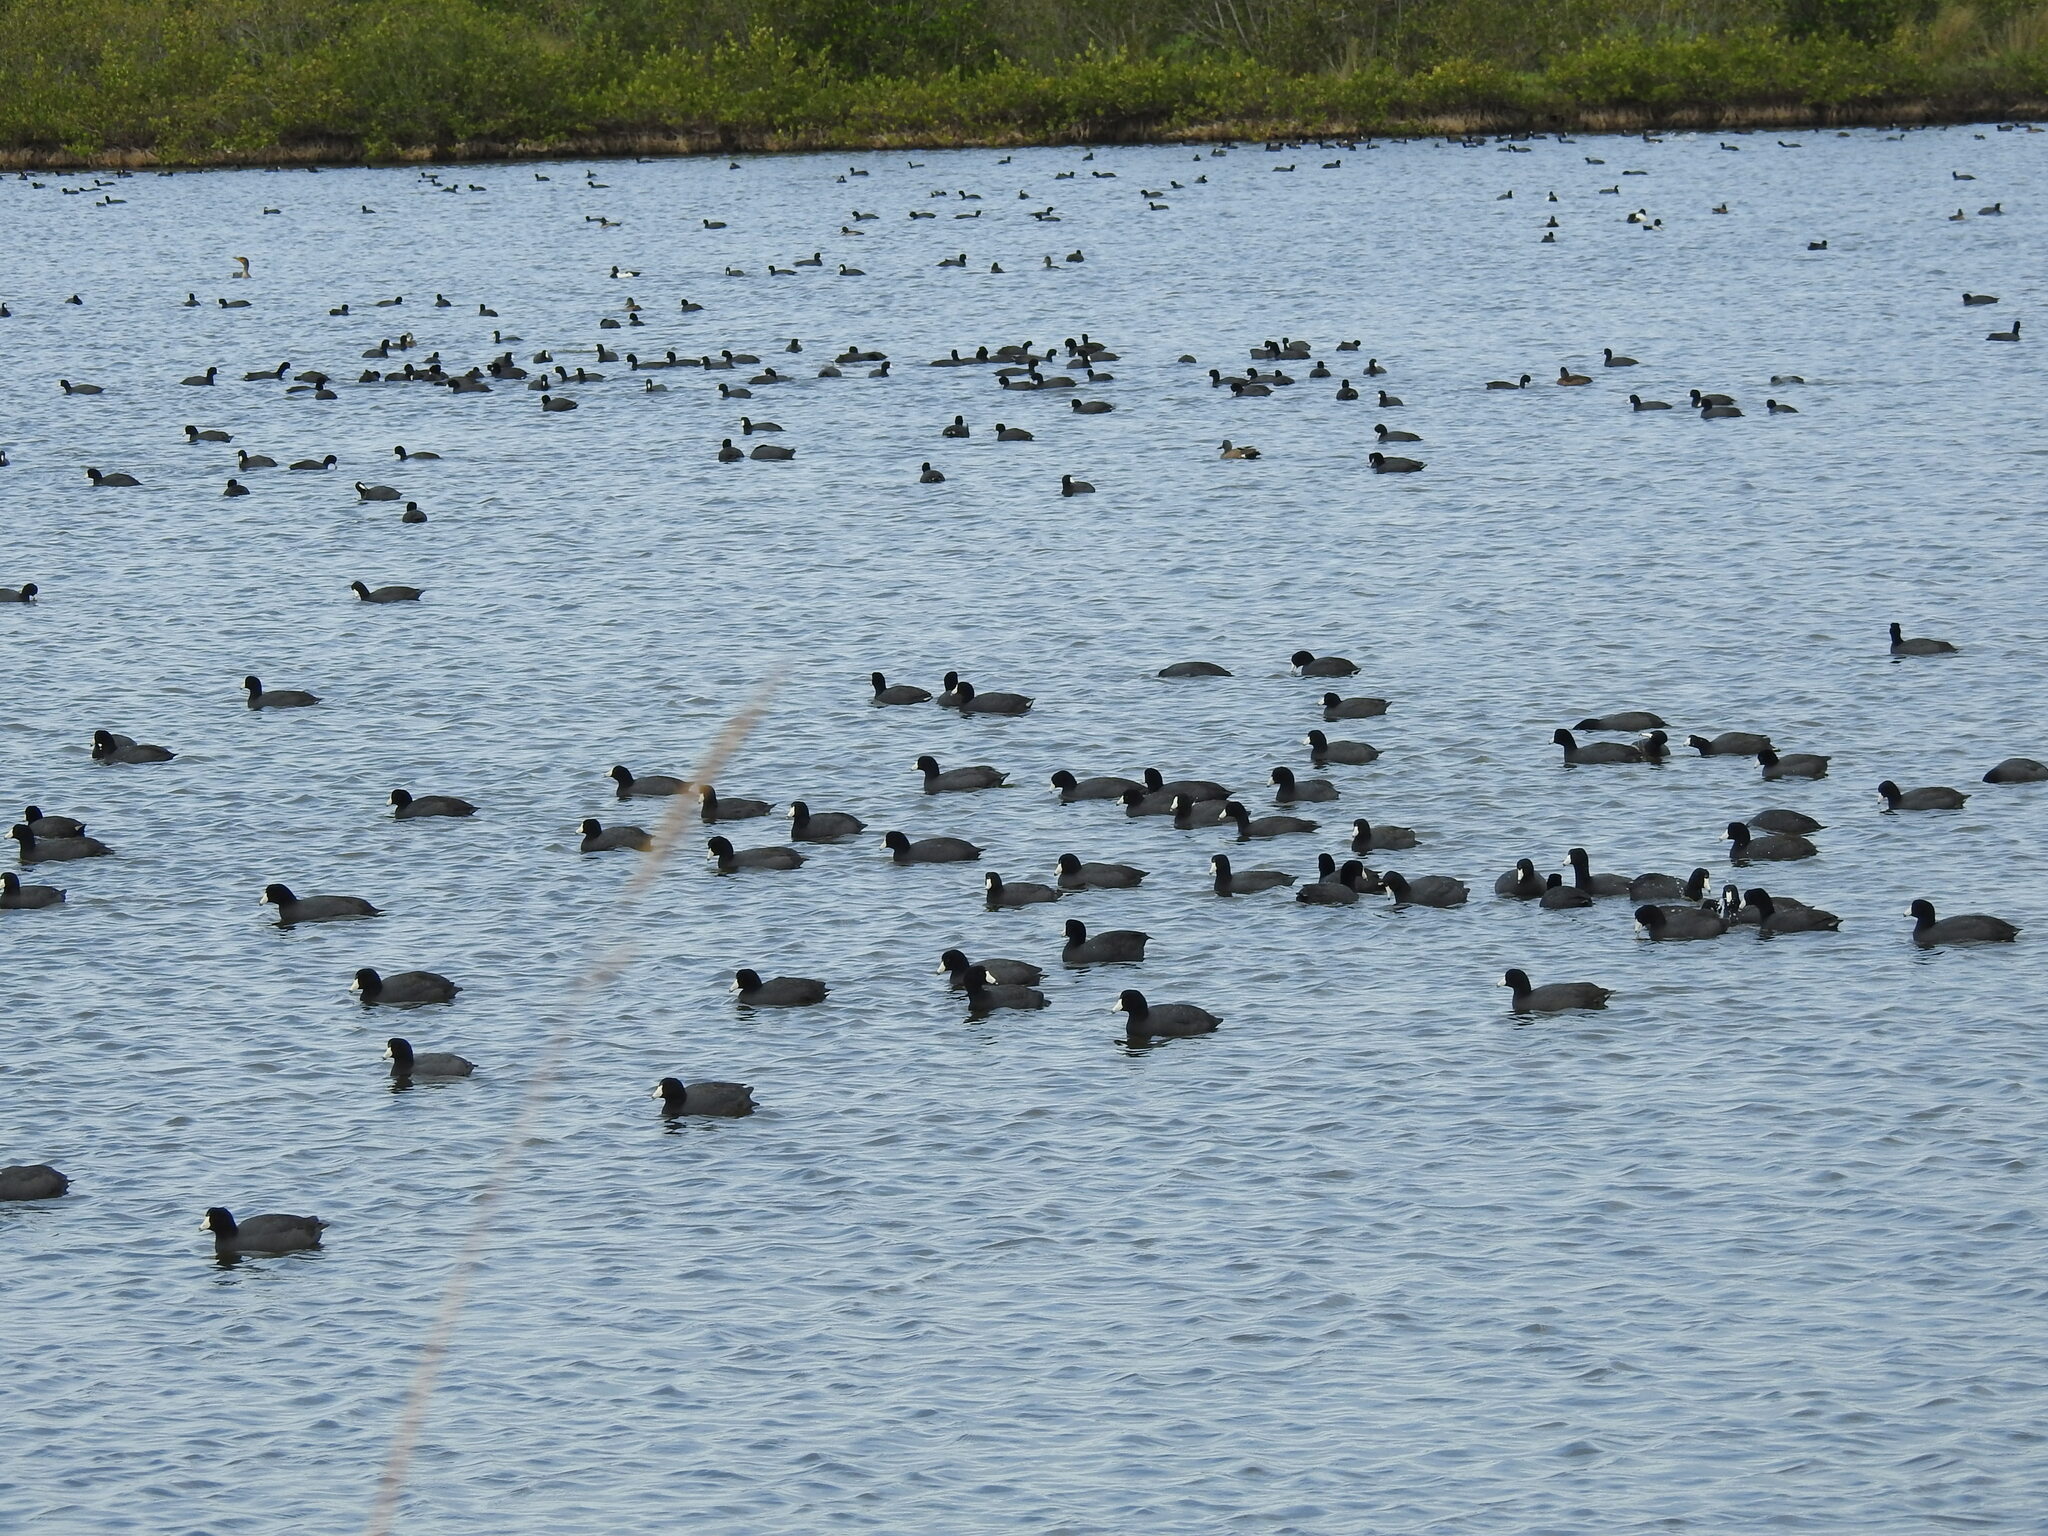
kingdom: Animalia
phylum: Chordata
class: Aves
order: Gruiformes
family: Rallidae
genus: Fulica
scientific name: Fulica americana
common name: American coot
